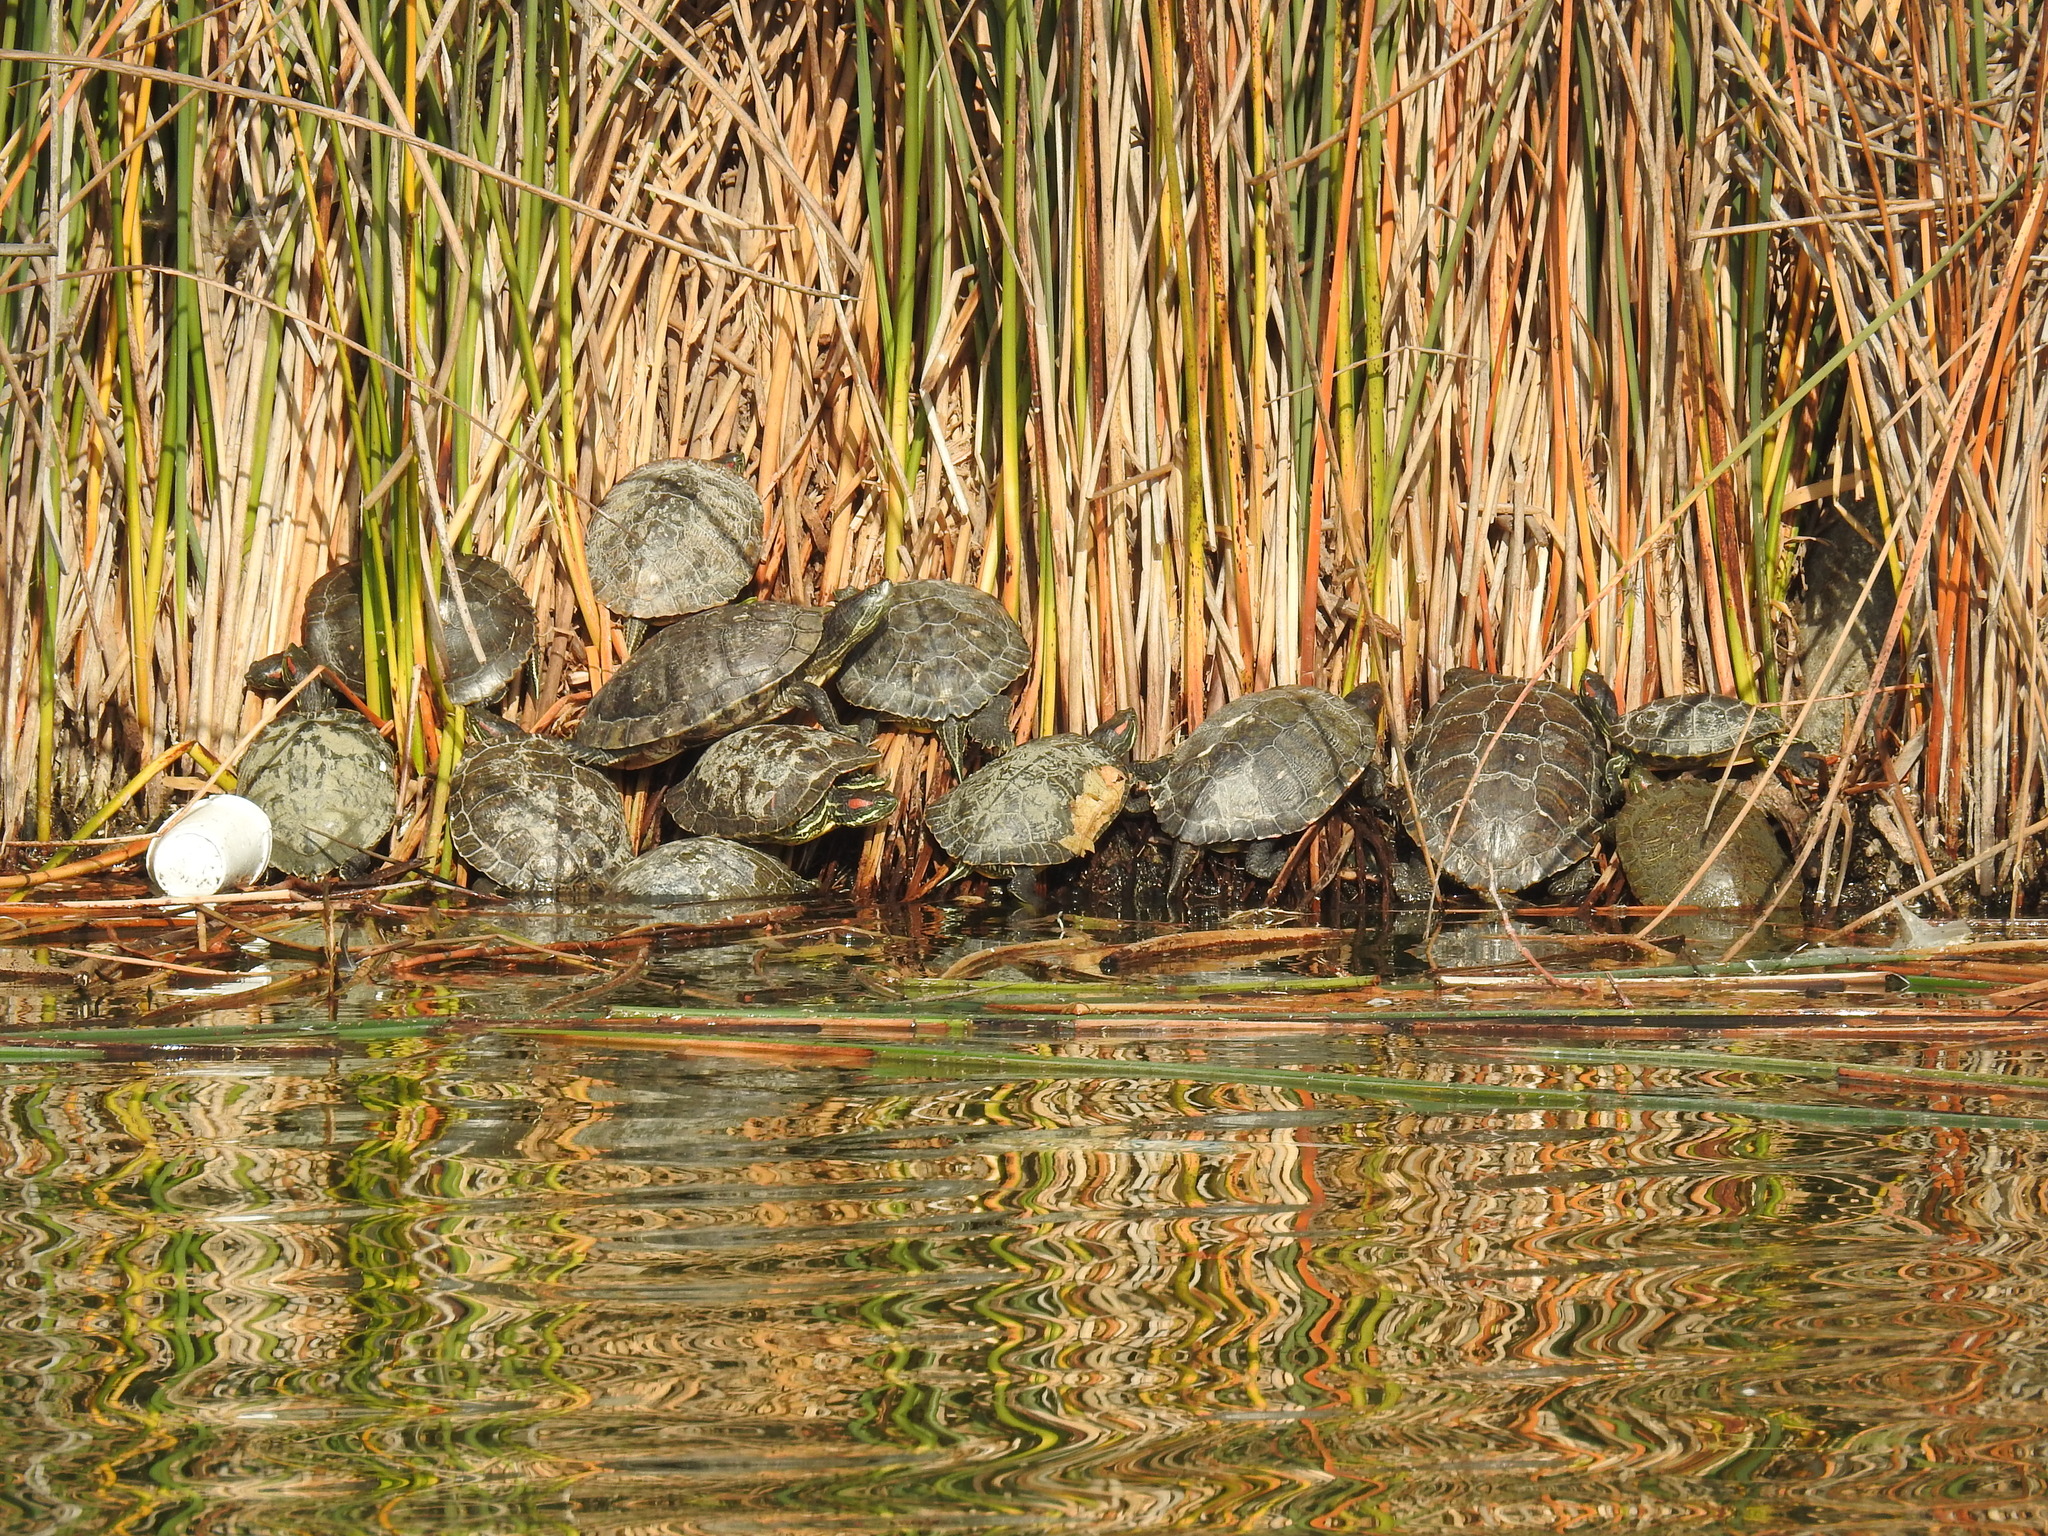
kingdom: Animalia
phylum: Chordata
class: Testudines
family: Emydidae
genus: Trachemys
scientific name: Trachemys scripta
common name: Slider
